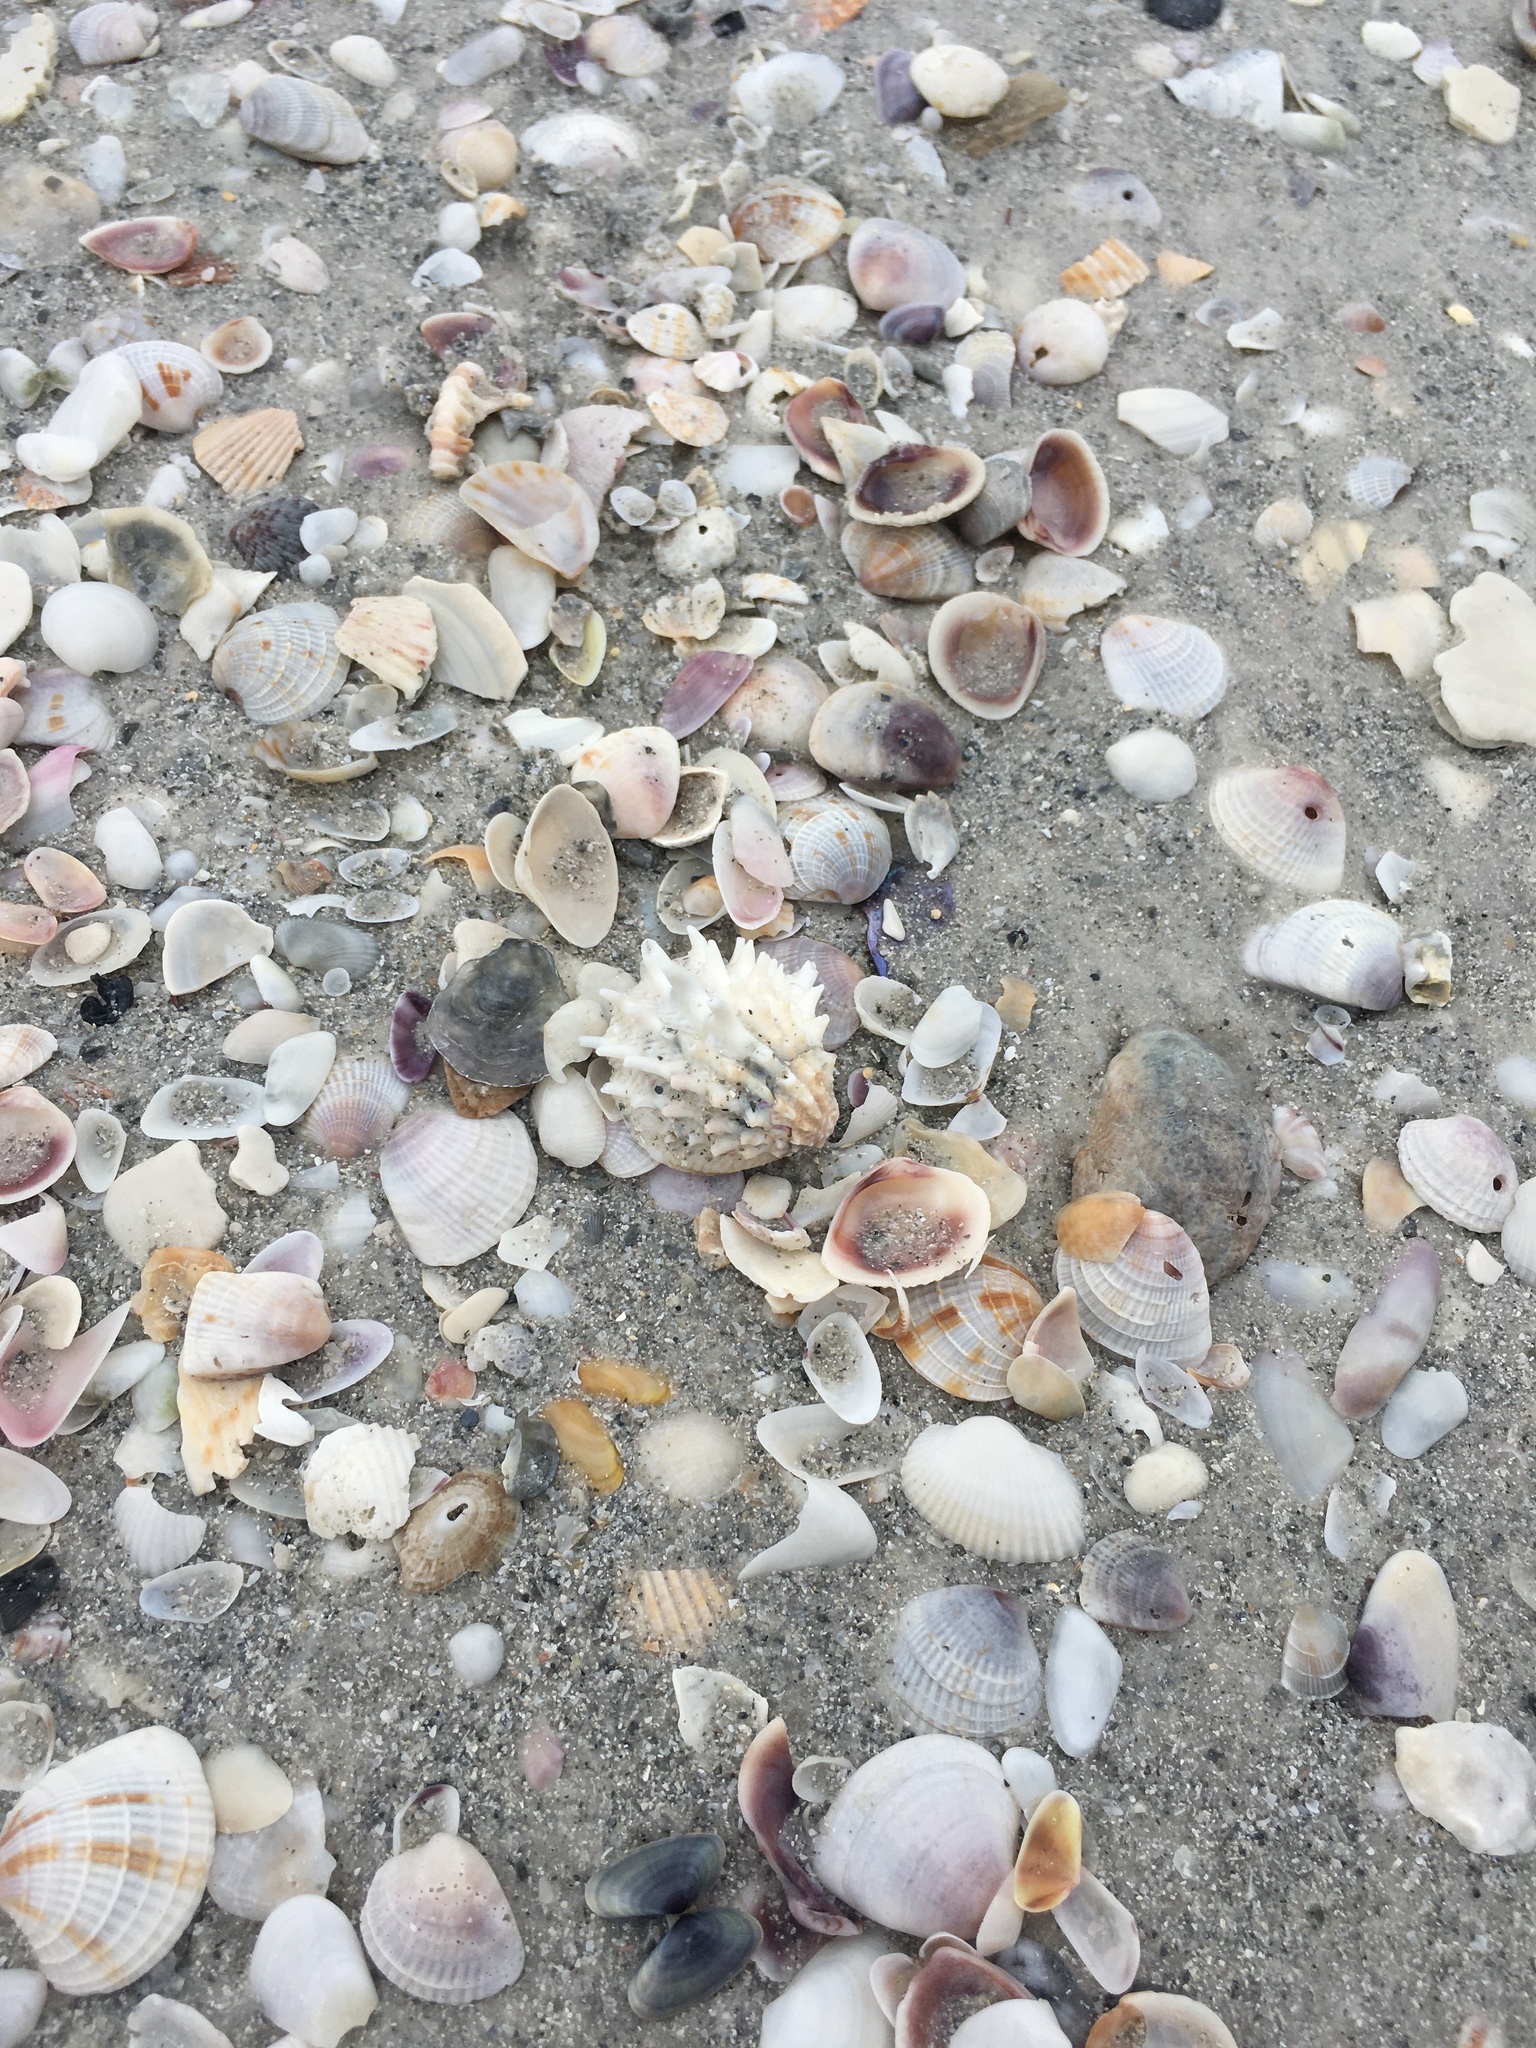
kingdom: Animalia
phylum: Mollusca
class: Bivalvia
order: Venerida
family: Chamidae
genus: Arcinella
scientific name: Arcinella cornuta
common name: Florida spiny jewel box
